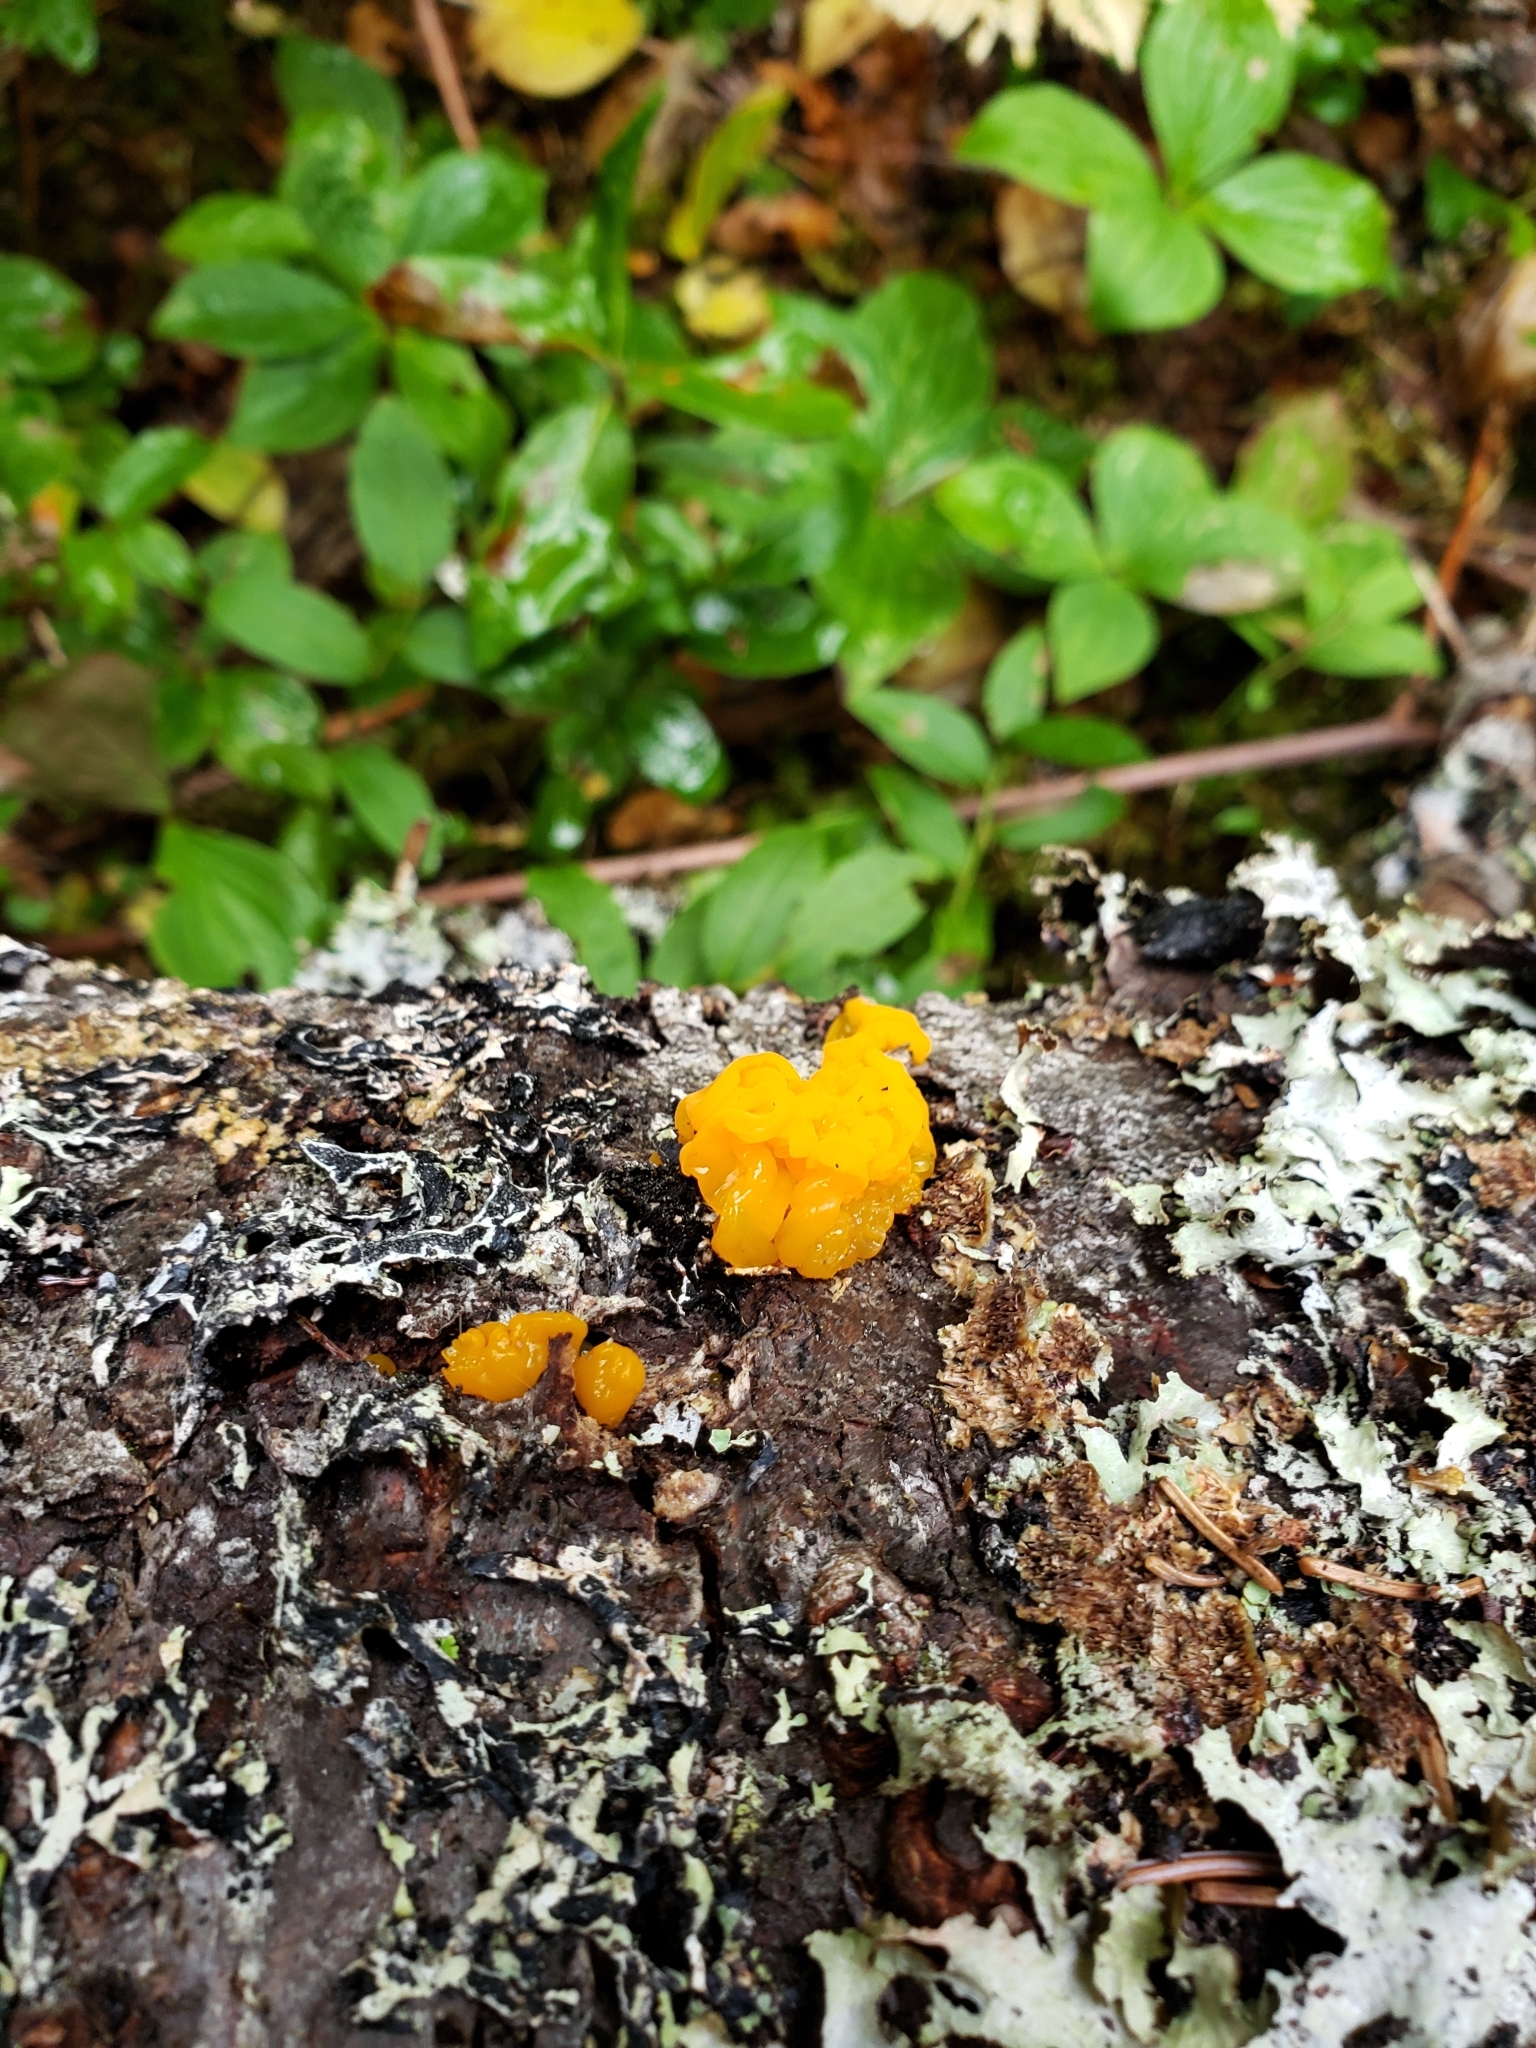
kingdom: Fungi
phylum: Basidiomycota
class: Dacrymycetes
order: Dacrymycetales
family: Dacrymycetaceae
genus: Dacrymyces
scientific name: Dacrymyces chrysospermus
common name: Orange jelly spot
